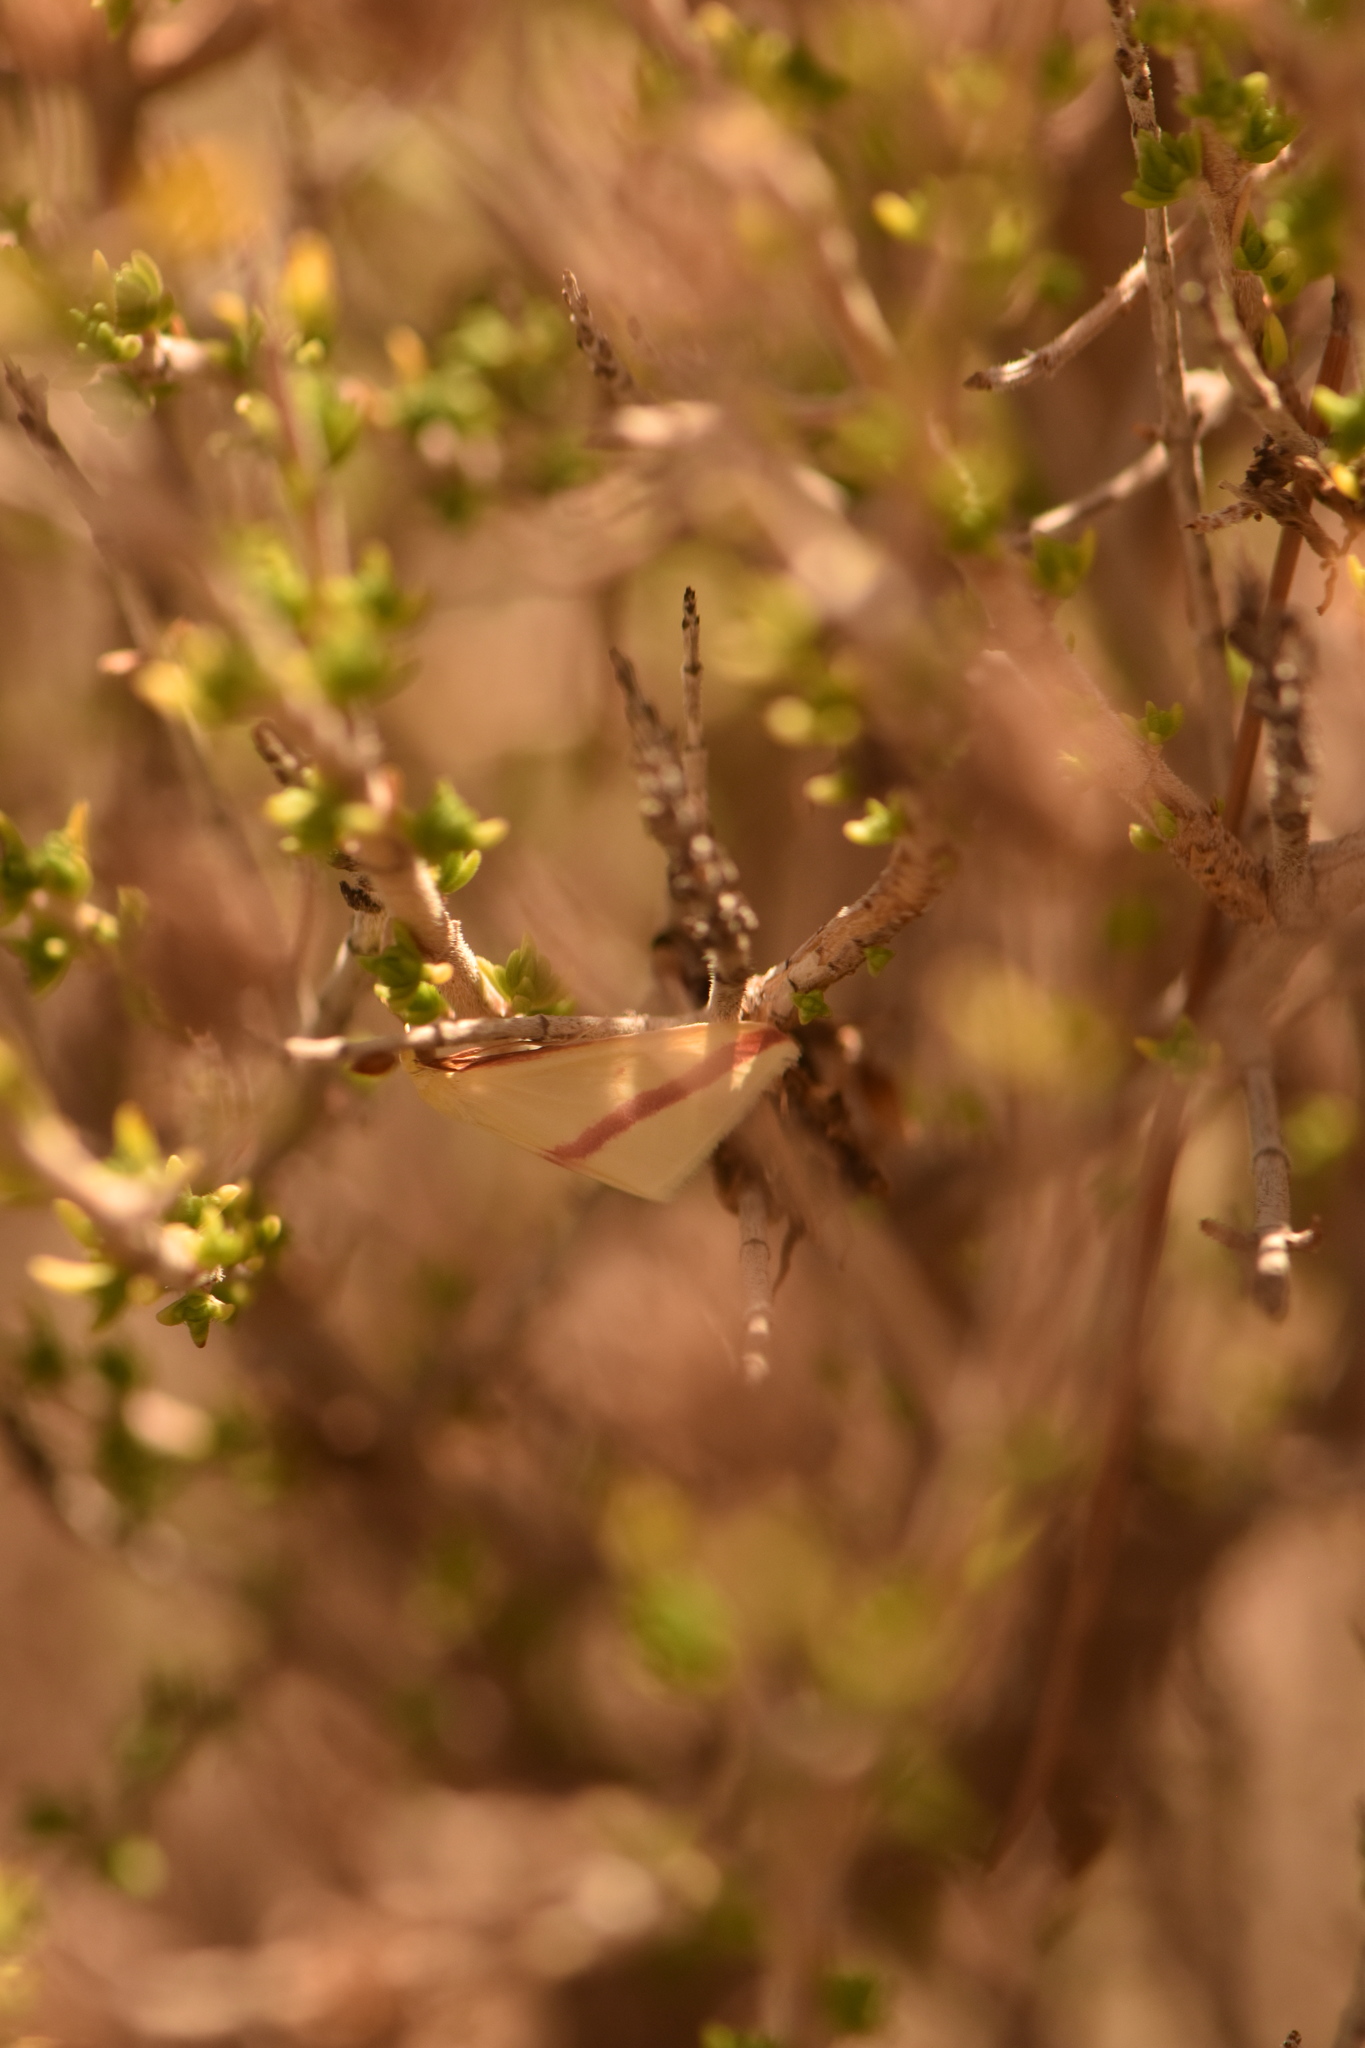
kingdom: Animalia
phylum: Arthropoda
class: Insecta
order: Lepidoptera
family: Geometridae
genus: Rhodometra
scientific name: Rhodometra sacraria
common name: Vestal
